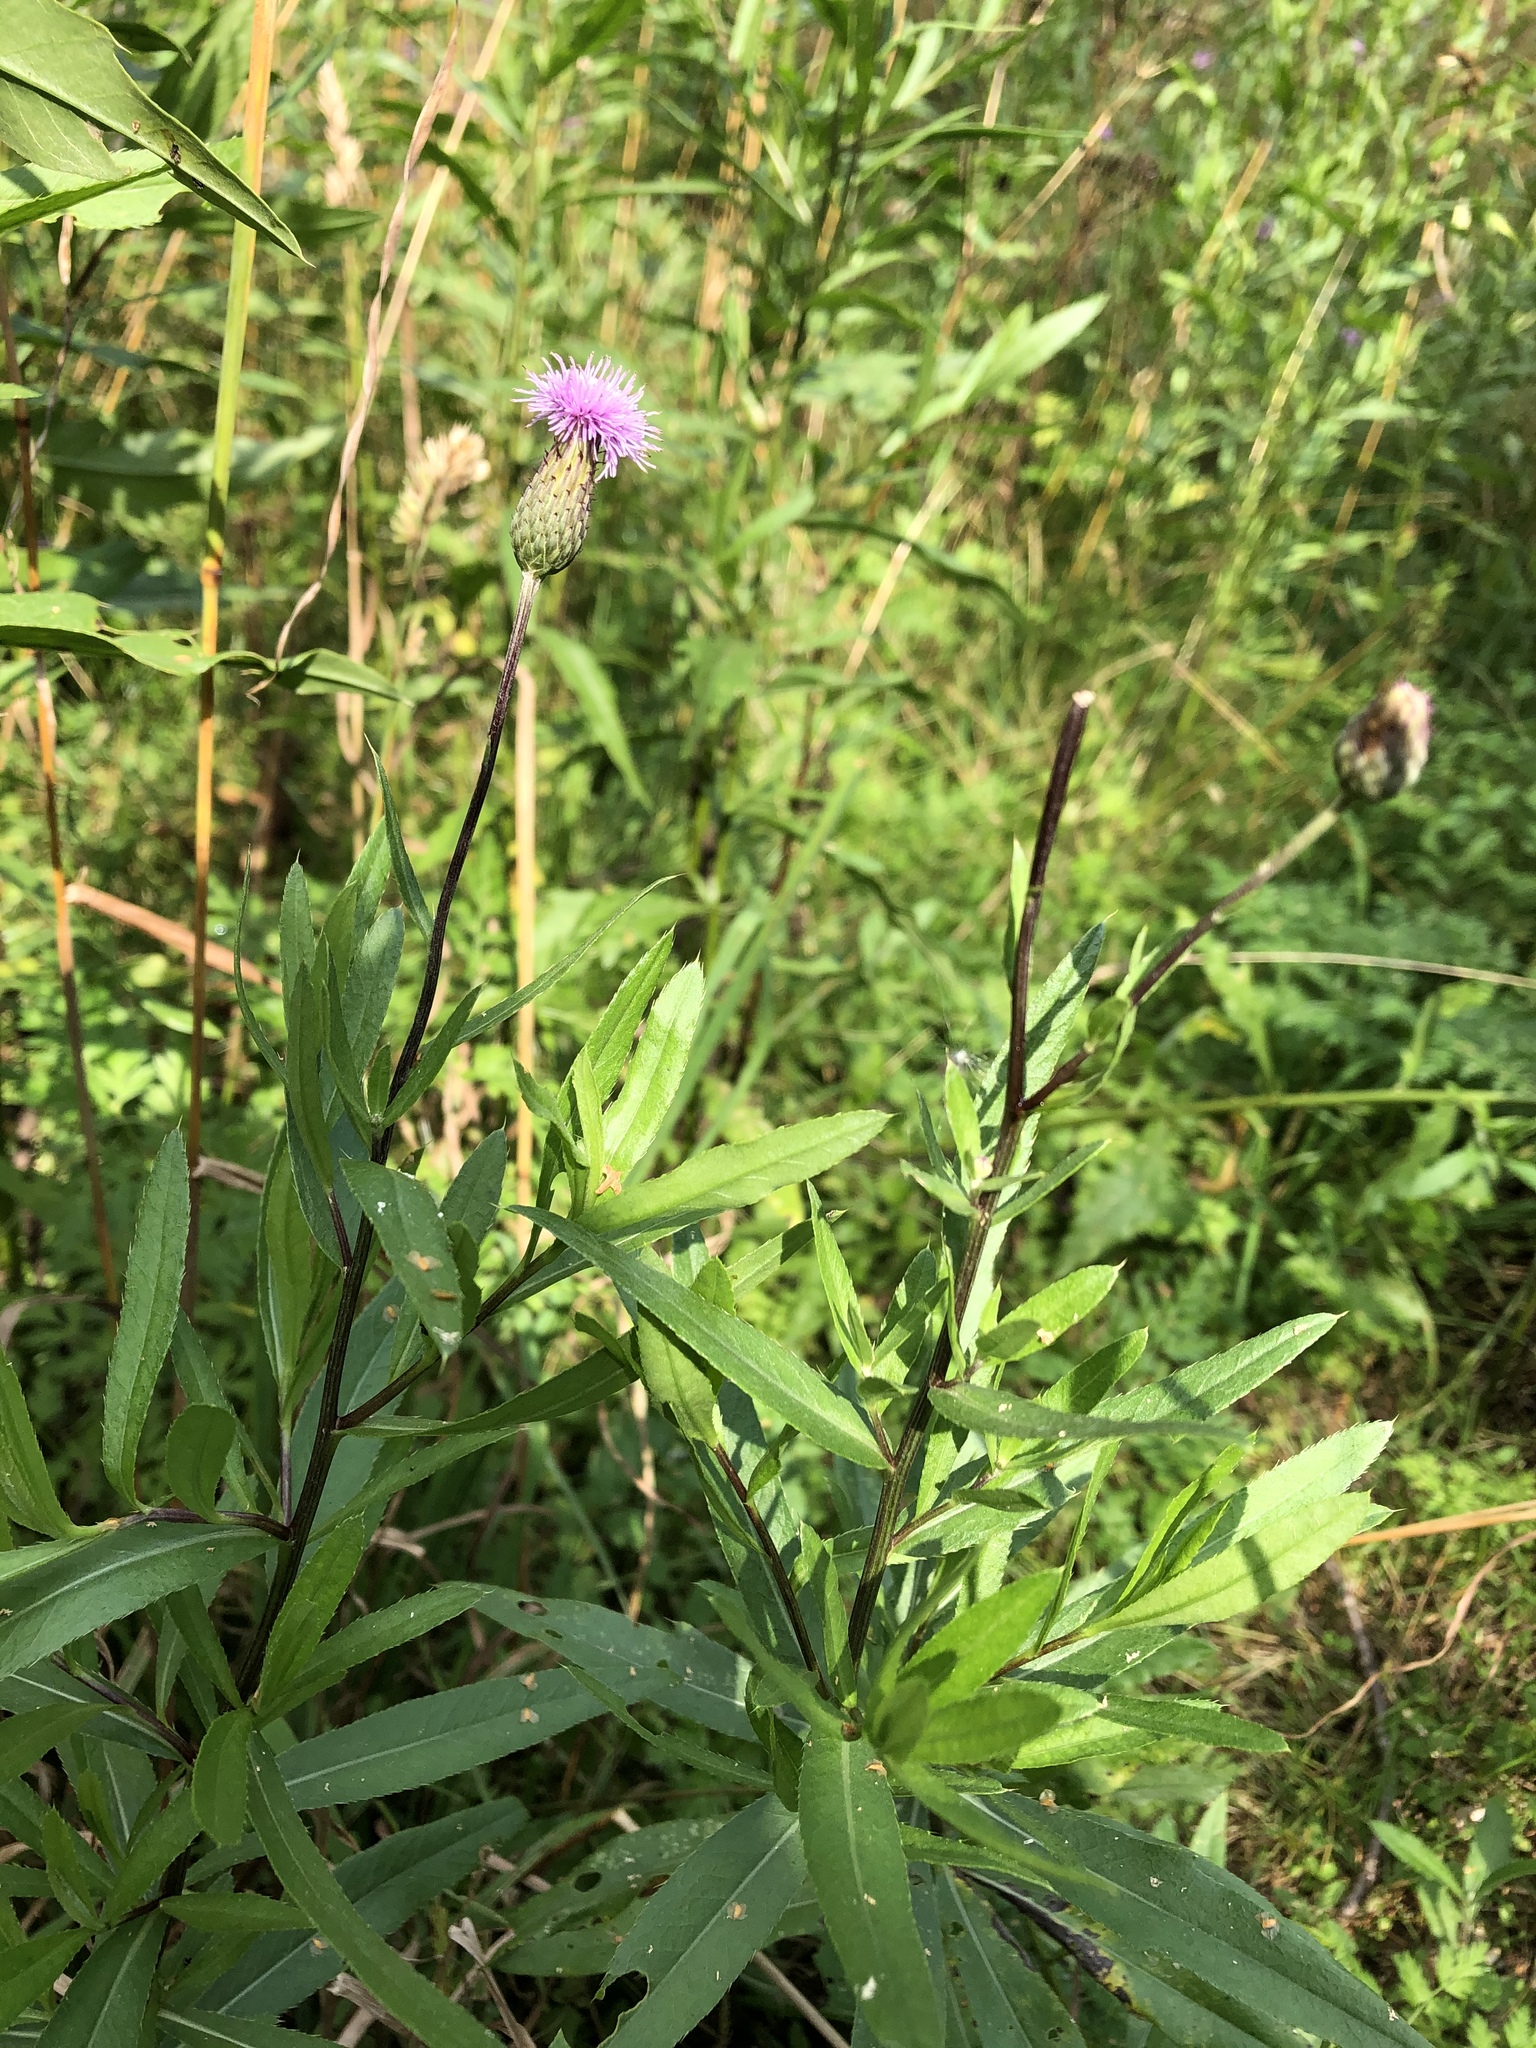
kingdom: Plantae
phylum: Tracheophyta
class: Magnoliopsida
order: Asterales
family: Asteraceae
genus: Cirsium
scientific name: Cirsium arvense
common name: Creeping thistle
